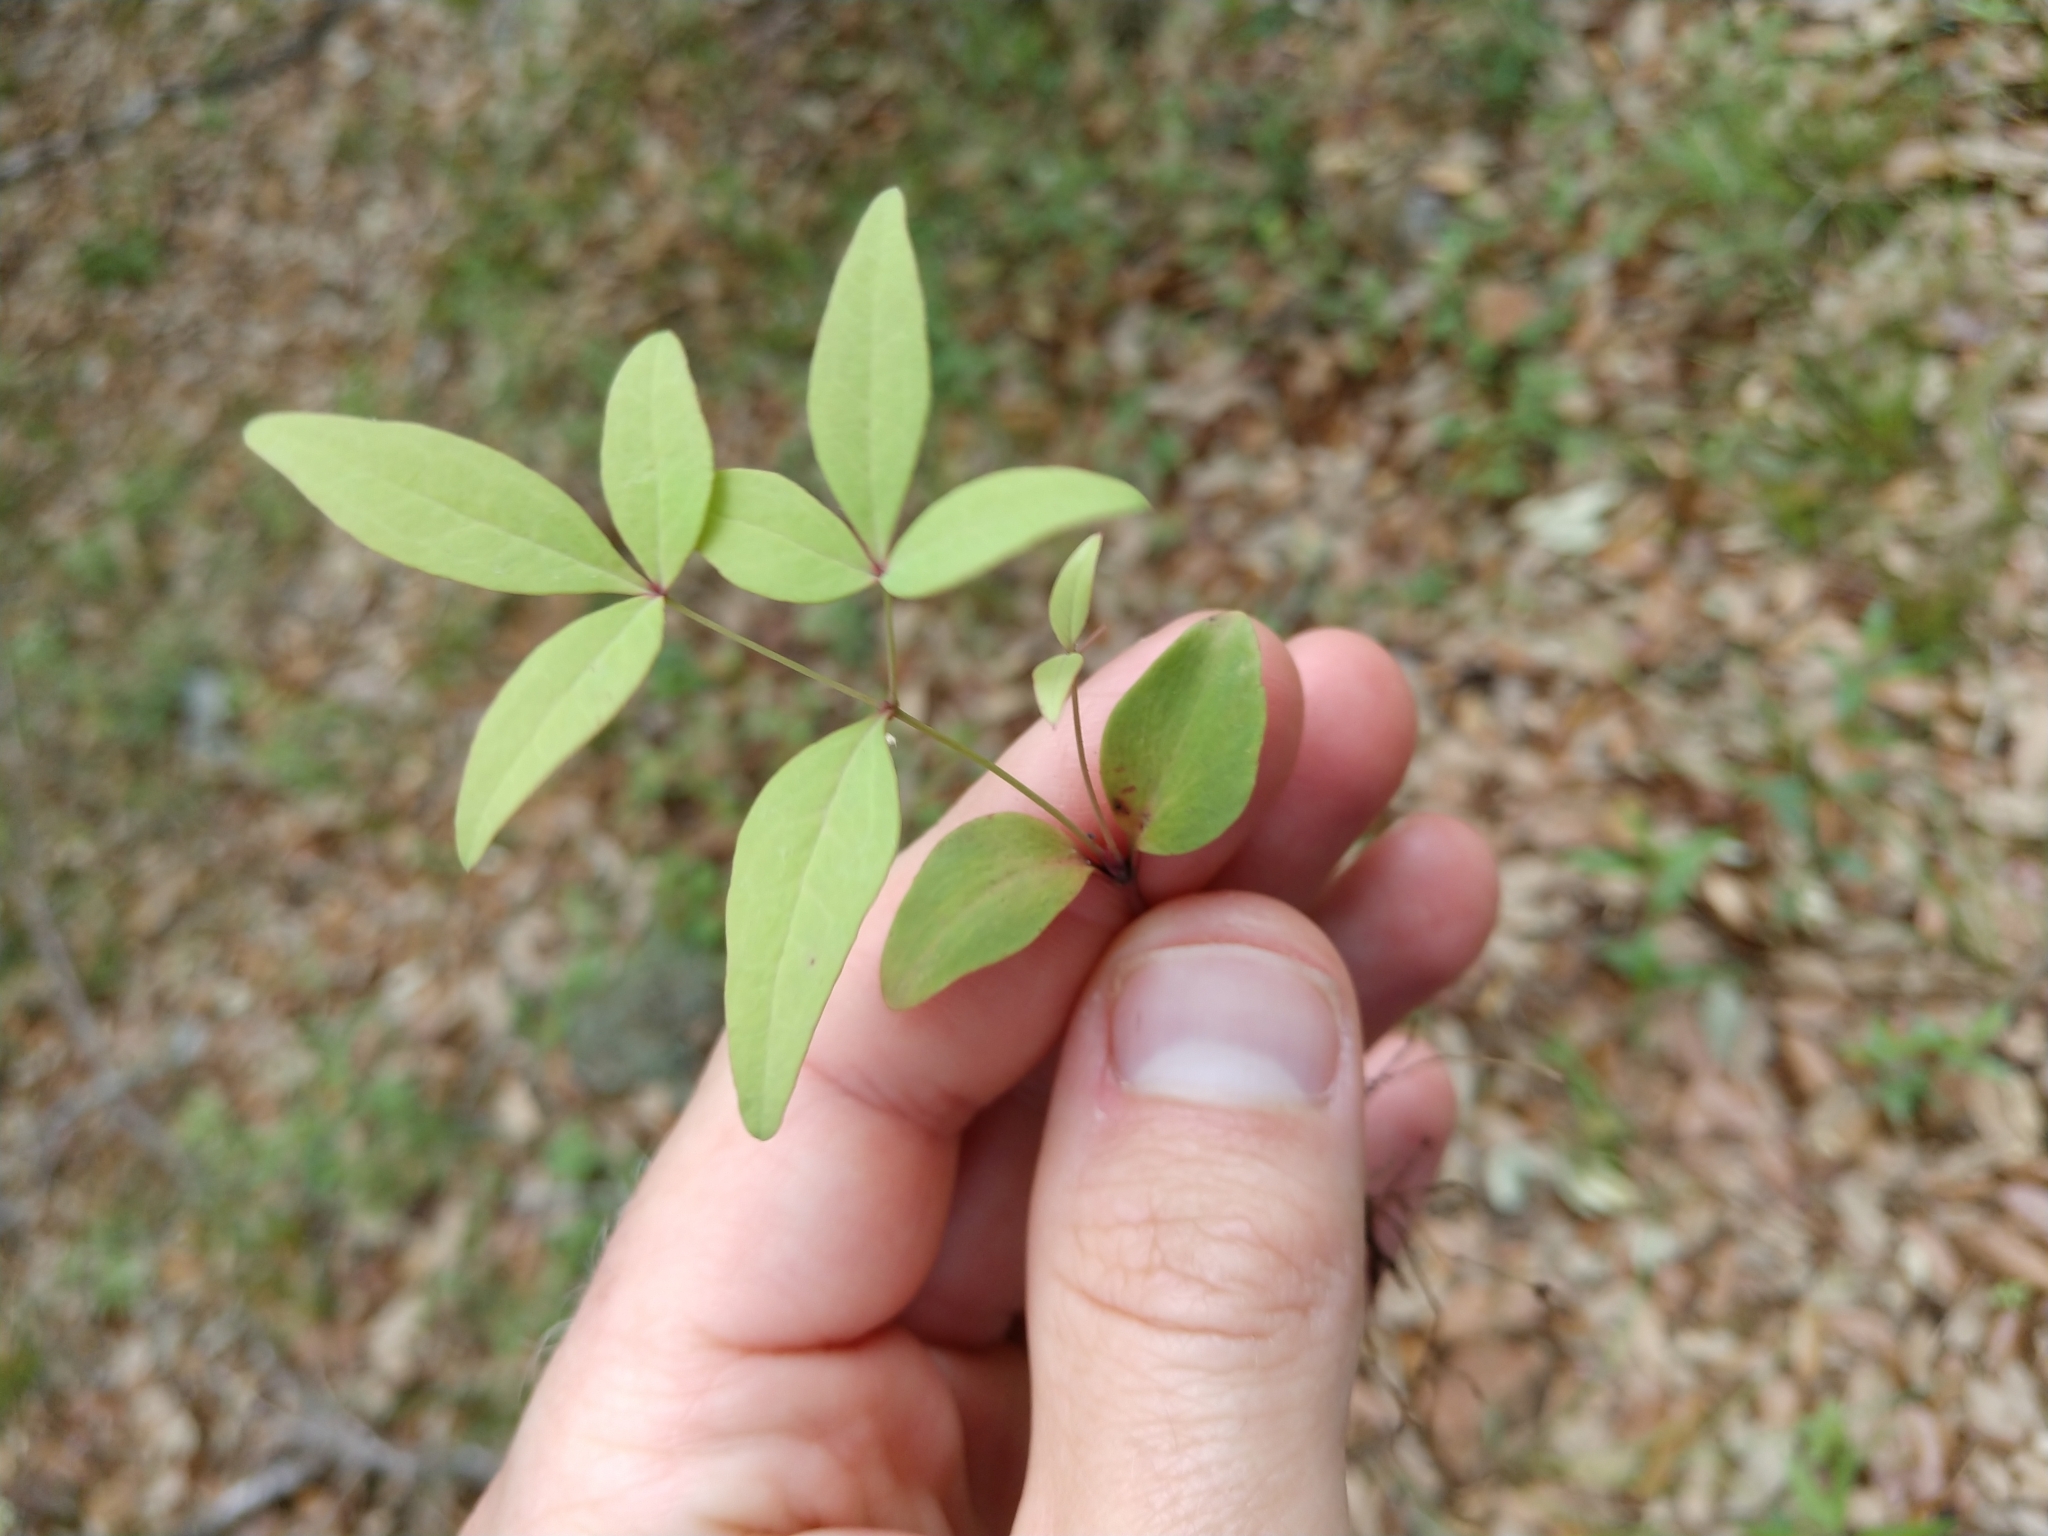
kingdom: Plantae
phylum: Tracheophyta
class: Magnoliopsida
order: Ranunculales
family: Berberidaceae
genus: Nandina
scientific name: Nandina domestica
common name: Sacred bamboo
